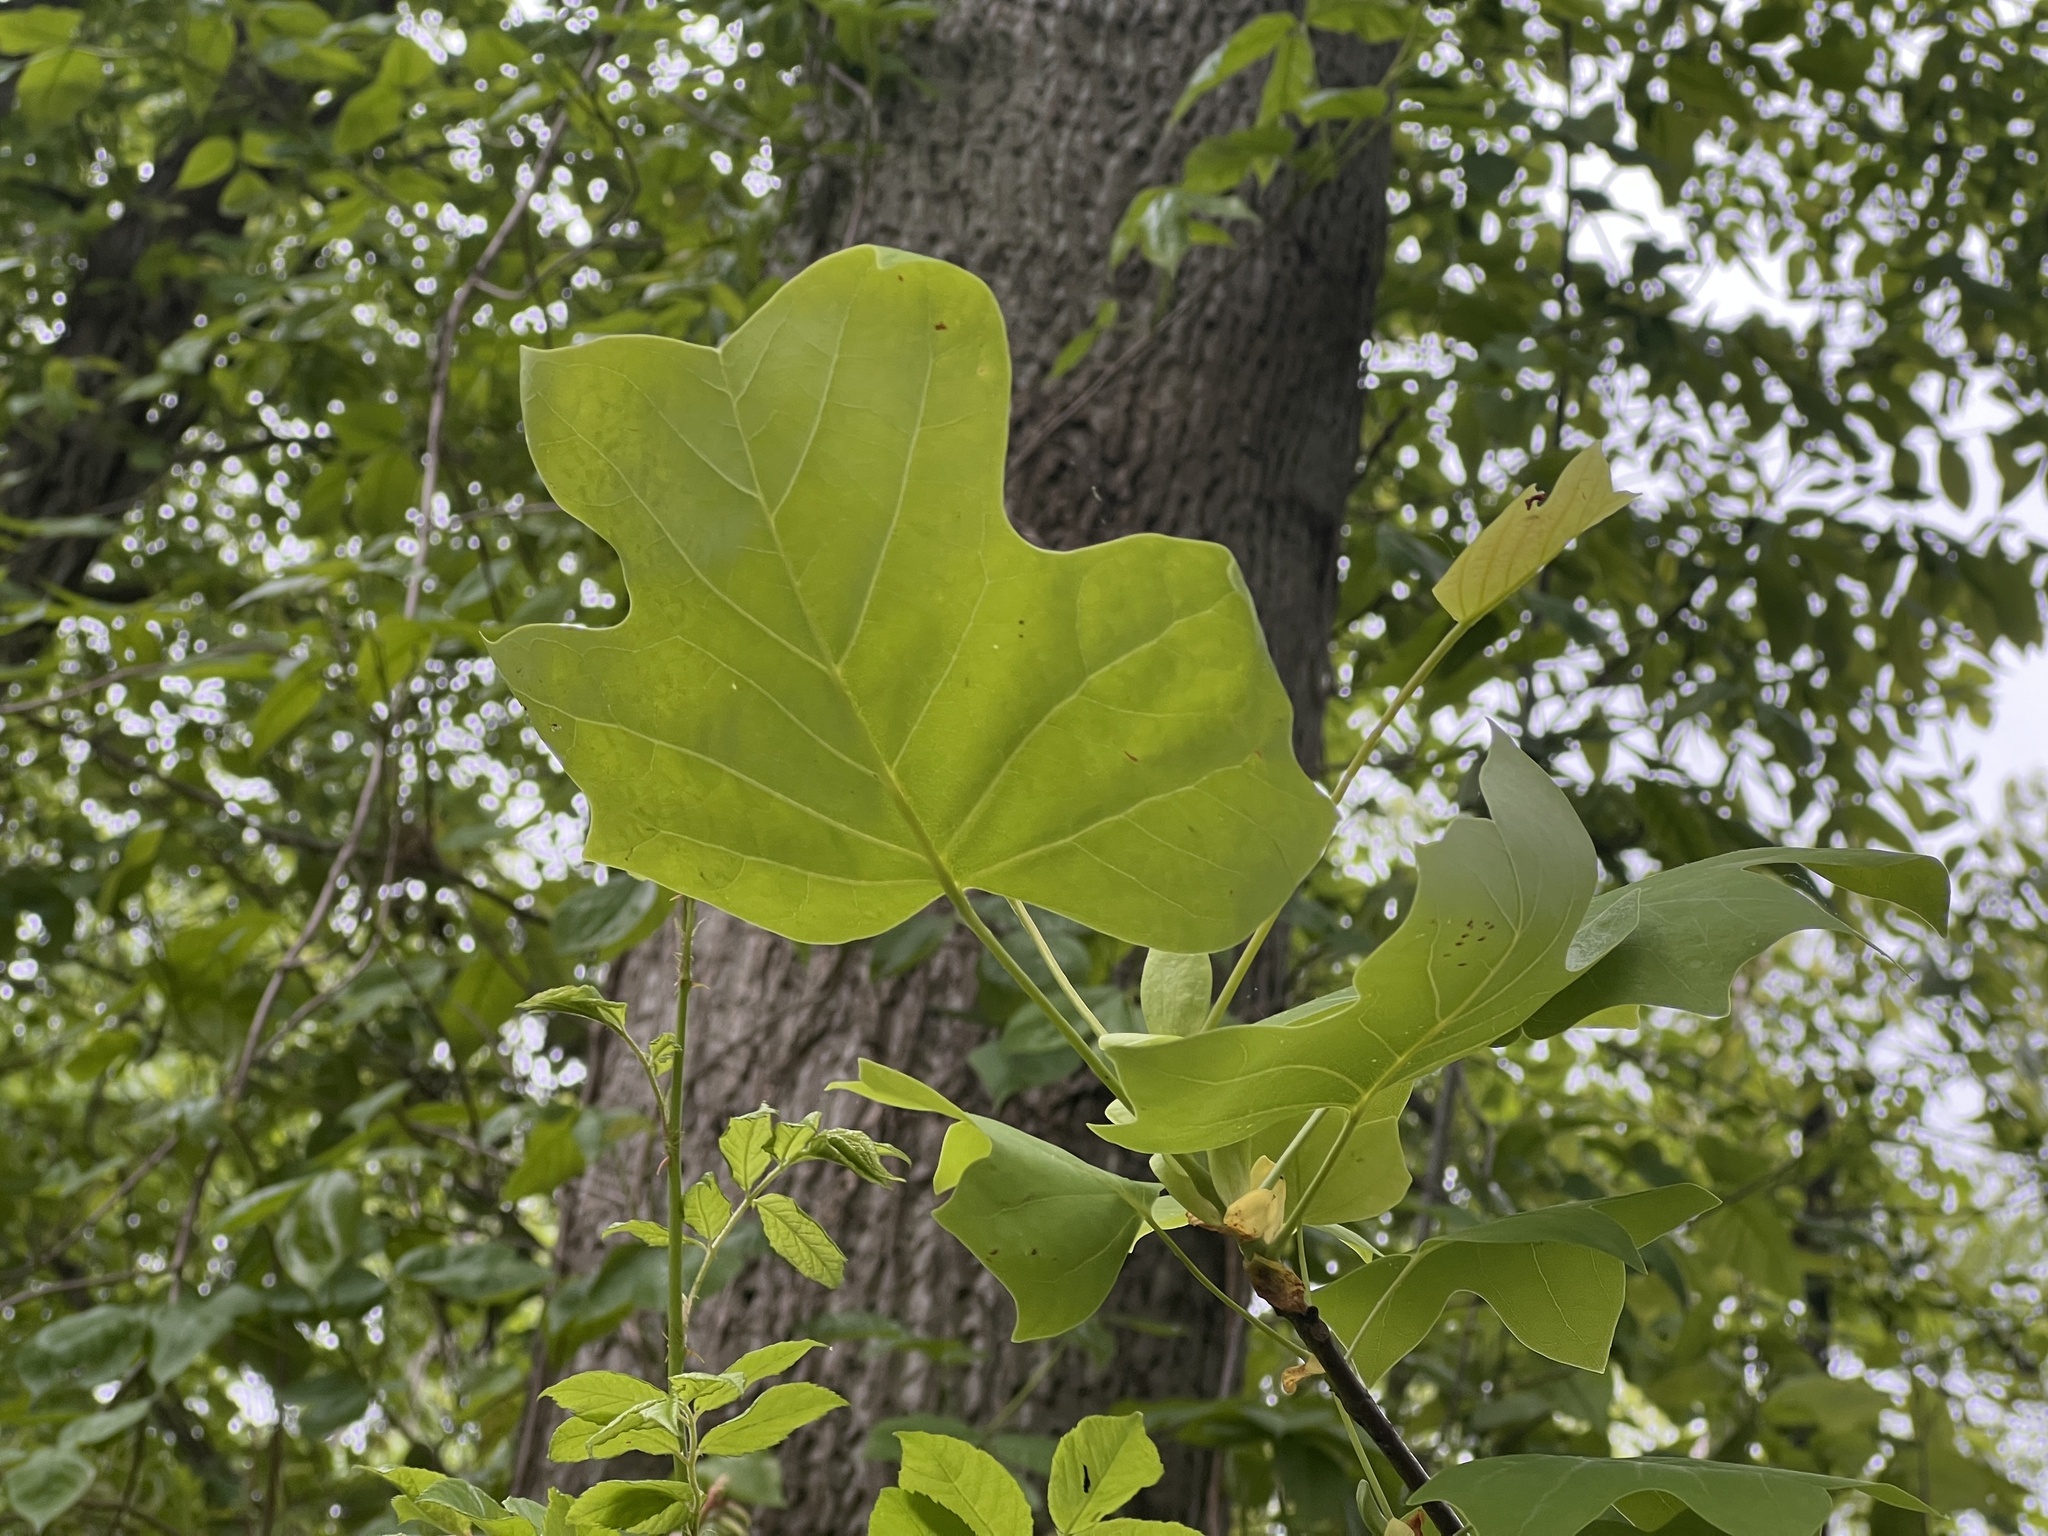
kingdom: Plantae
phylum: Tracheophyta
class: Magnoliopsida
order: Magnoliales
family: Magnoliaceae
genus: Liriodendron
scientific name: Liriodendron tulipifera
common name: Tulip tree
